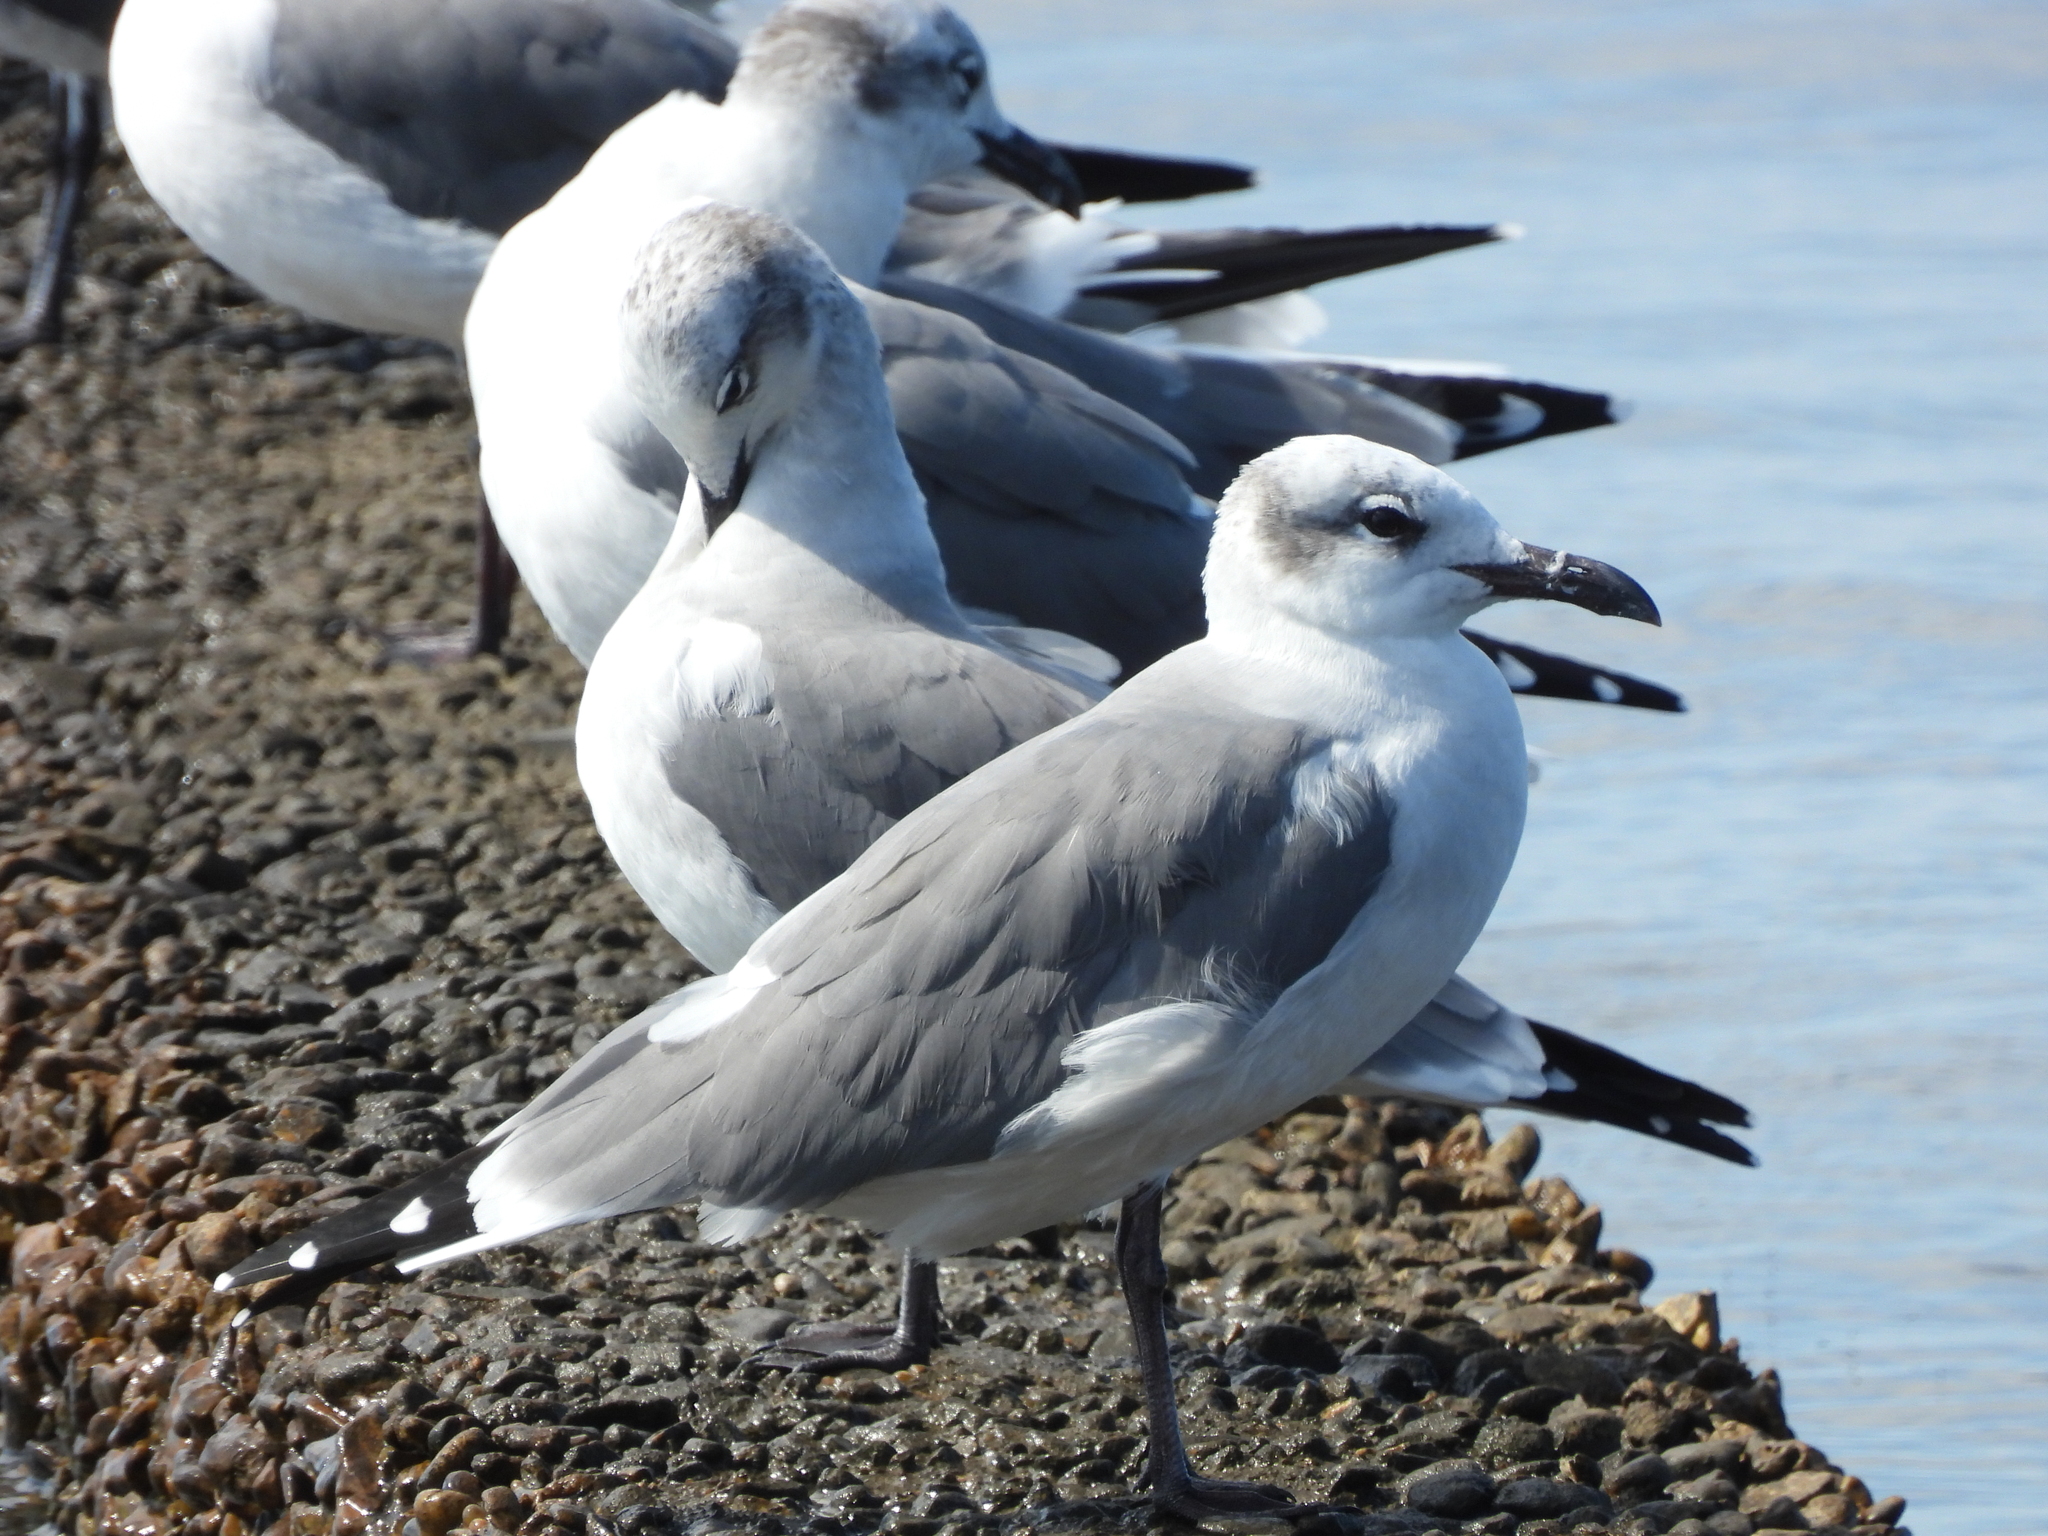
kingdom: Animalia
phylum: Chordata
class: Aves
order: Charadriiformes
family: Laridae
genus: Leucophaeus
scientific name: Leucophaeus atricilla
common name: Laughing gull
